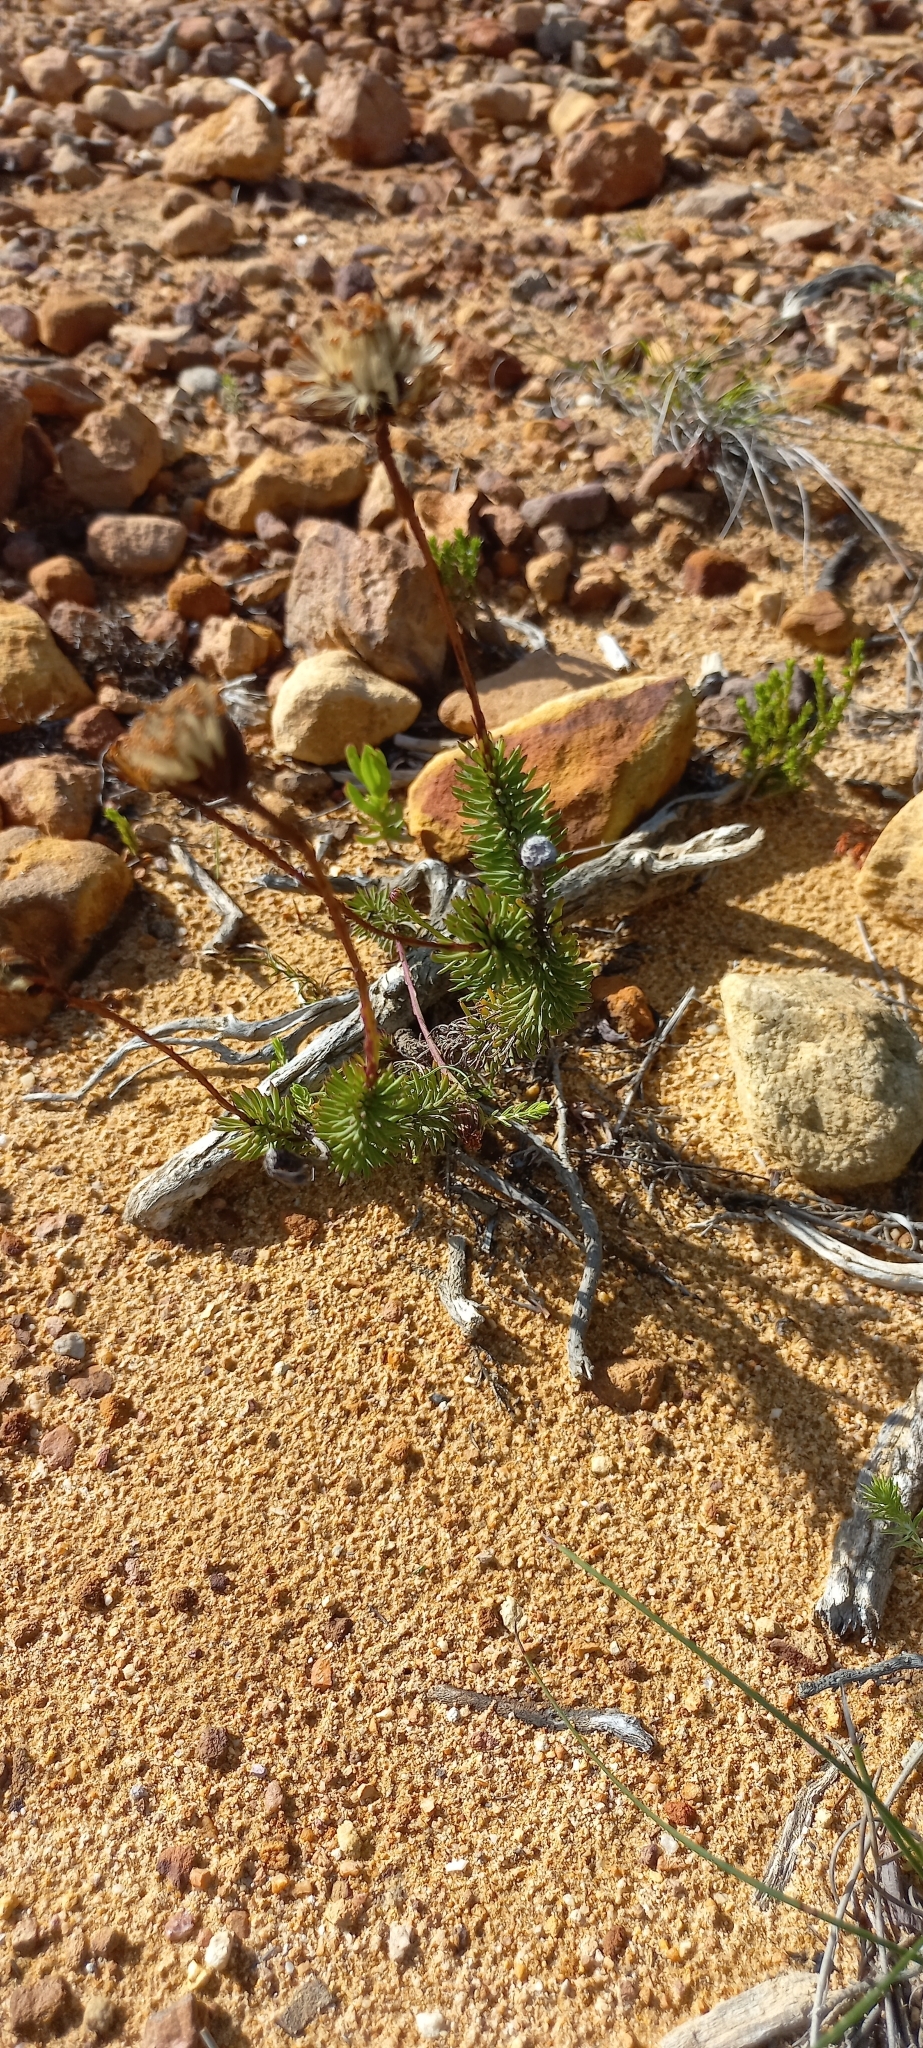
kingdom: Plantae
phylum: Tracheophyta
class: Magnoliopsida
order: Asterales
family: Asteraceae
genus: Heterolepis
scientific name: Heterolepis aliena
